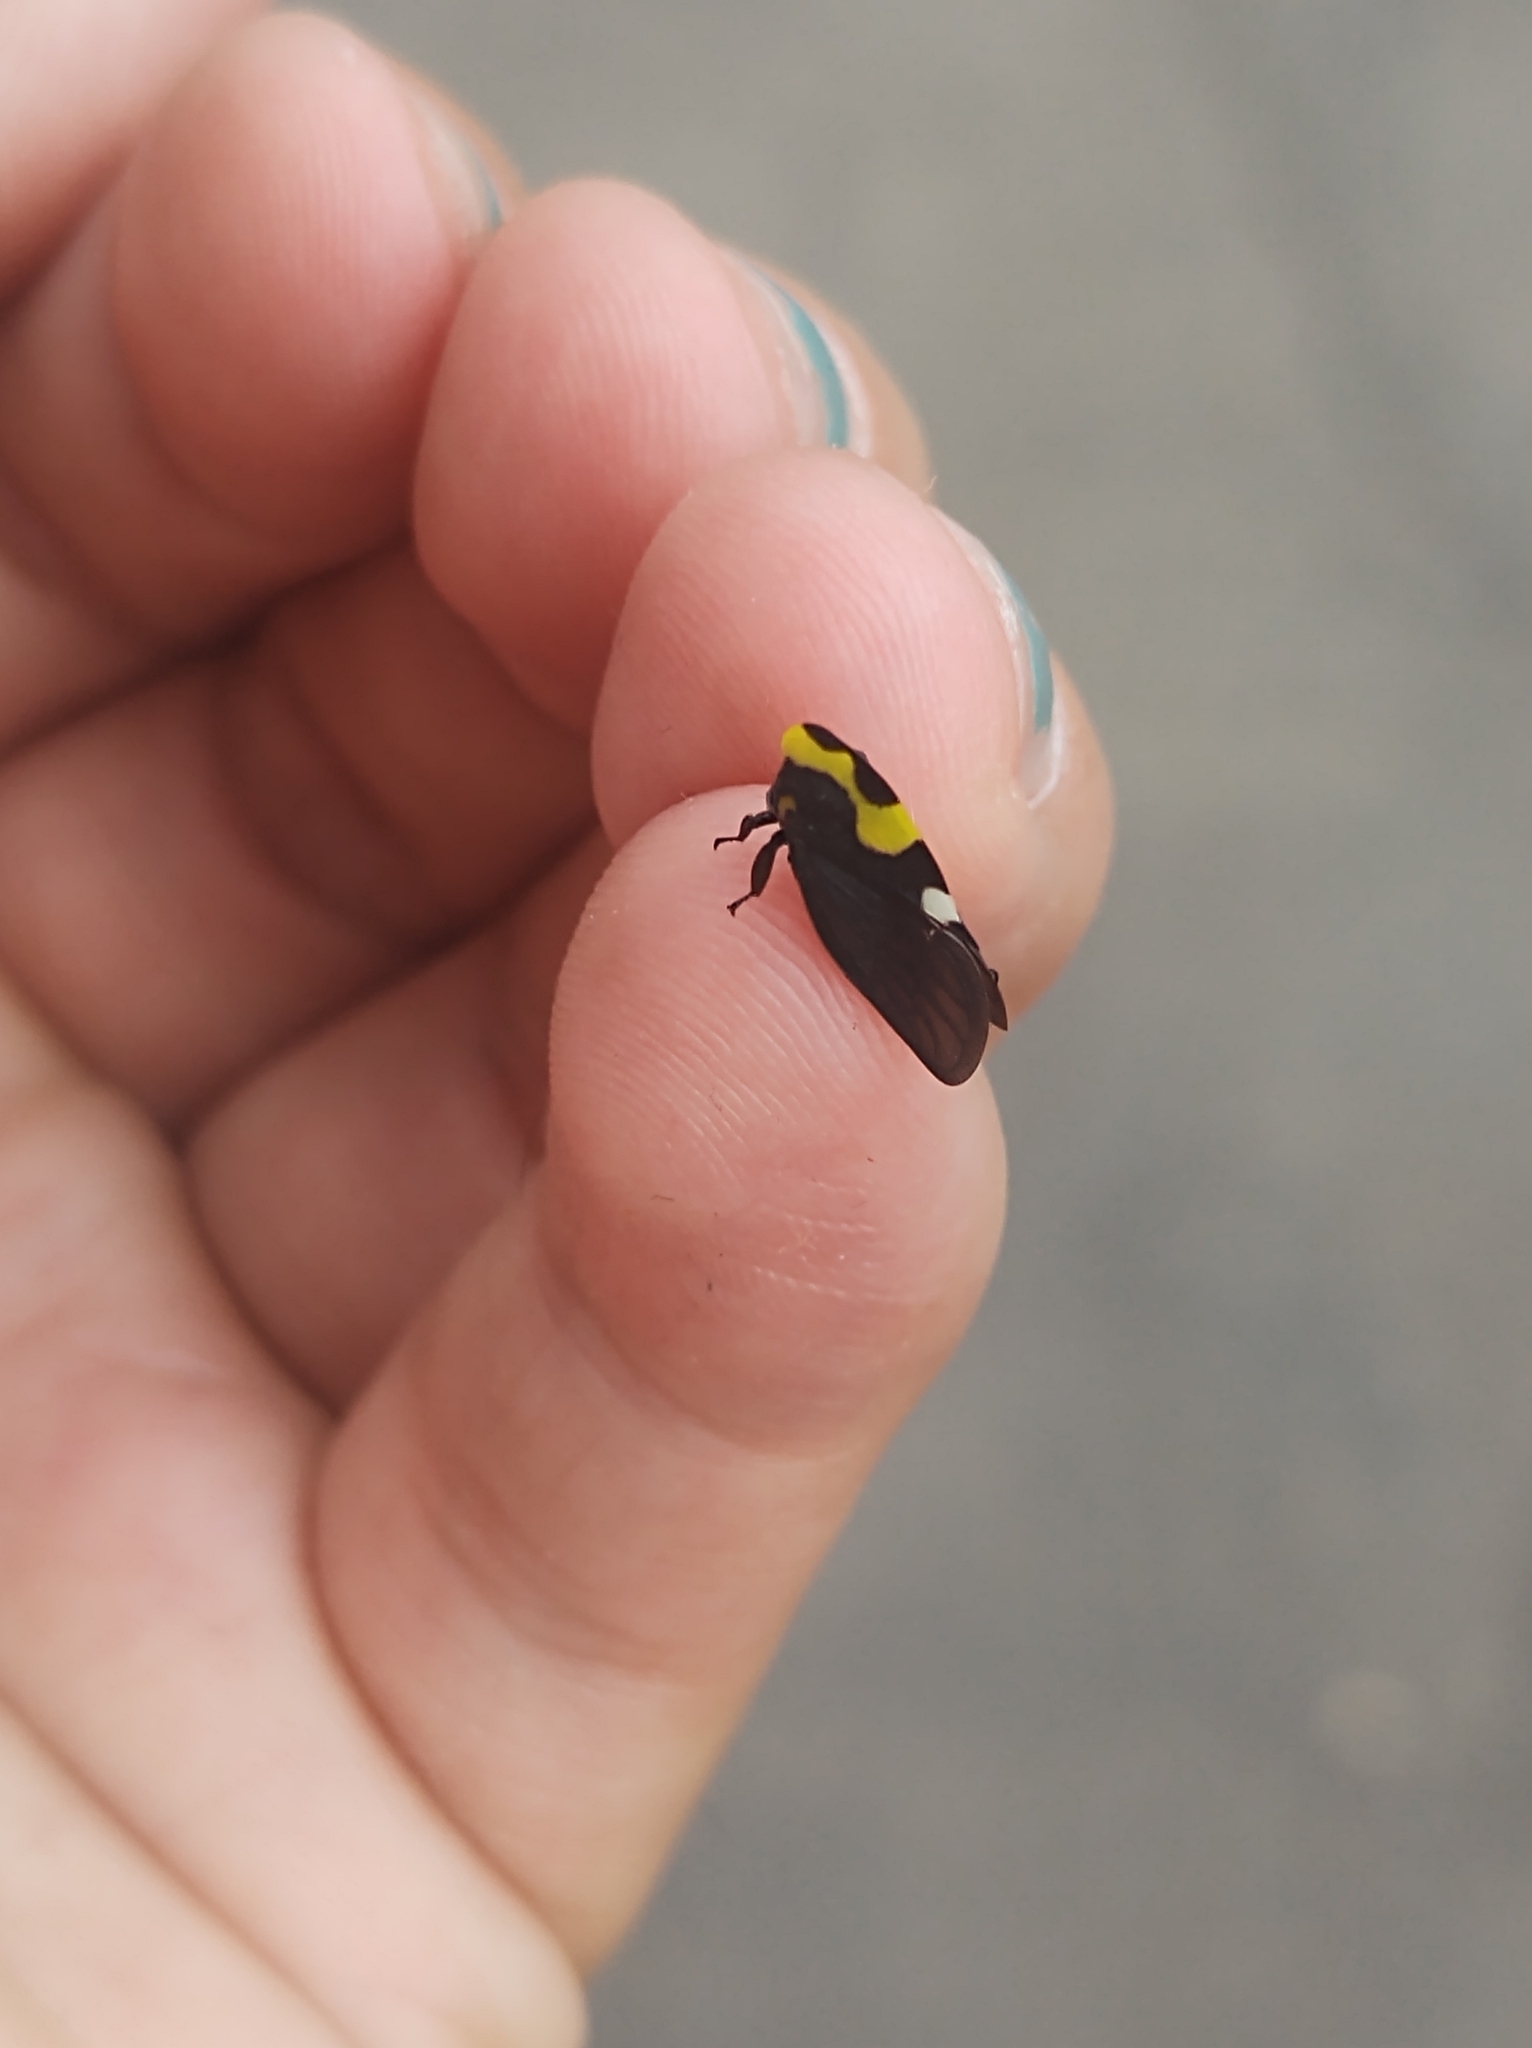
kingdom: Animalia
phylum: Arthropoda
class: Insecta
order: Hemiptera
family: Membracidae
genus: Membracis
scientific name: Membracis mexicana
